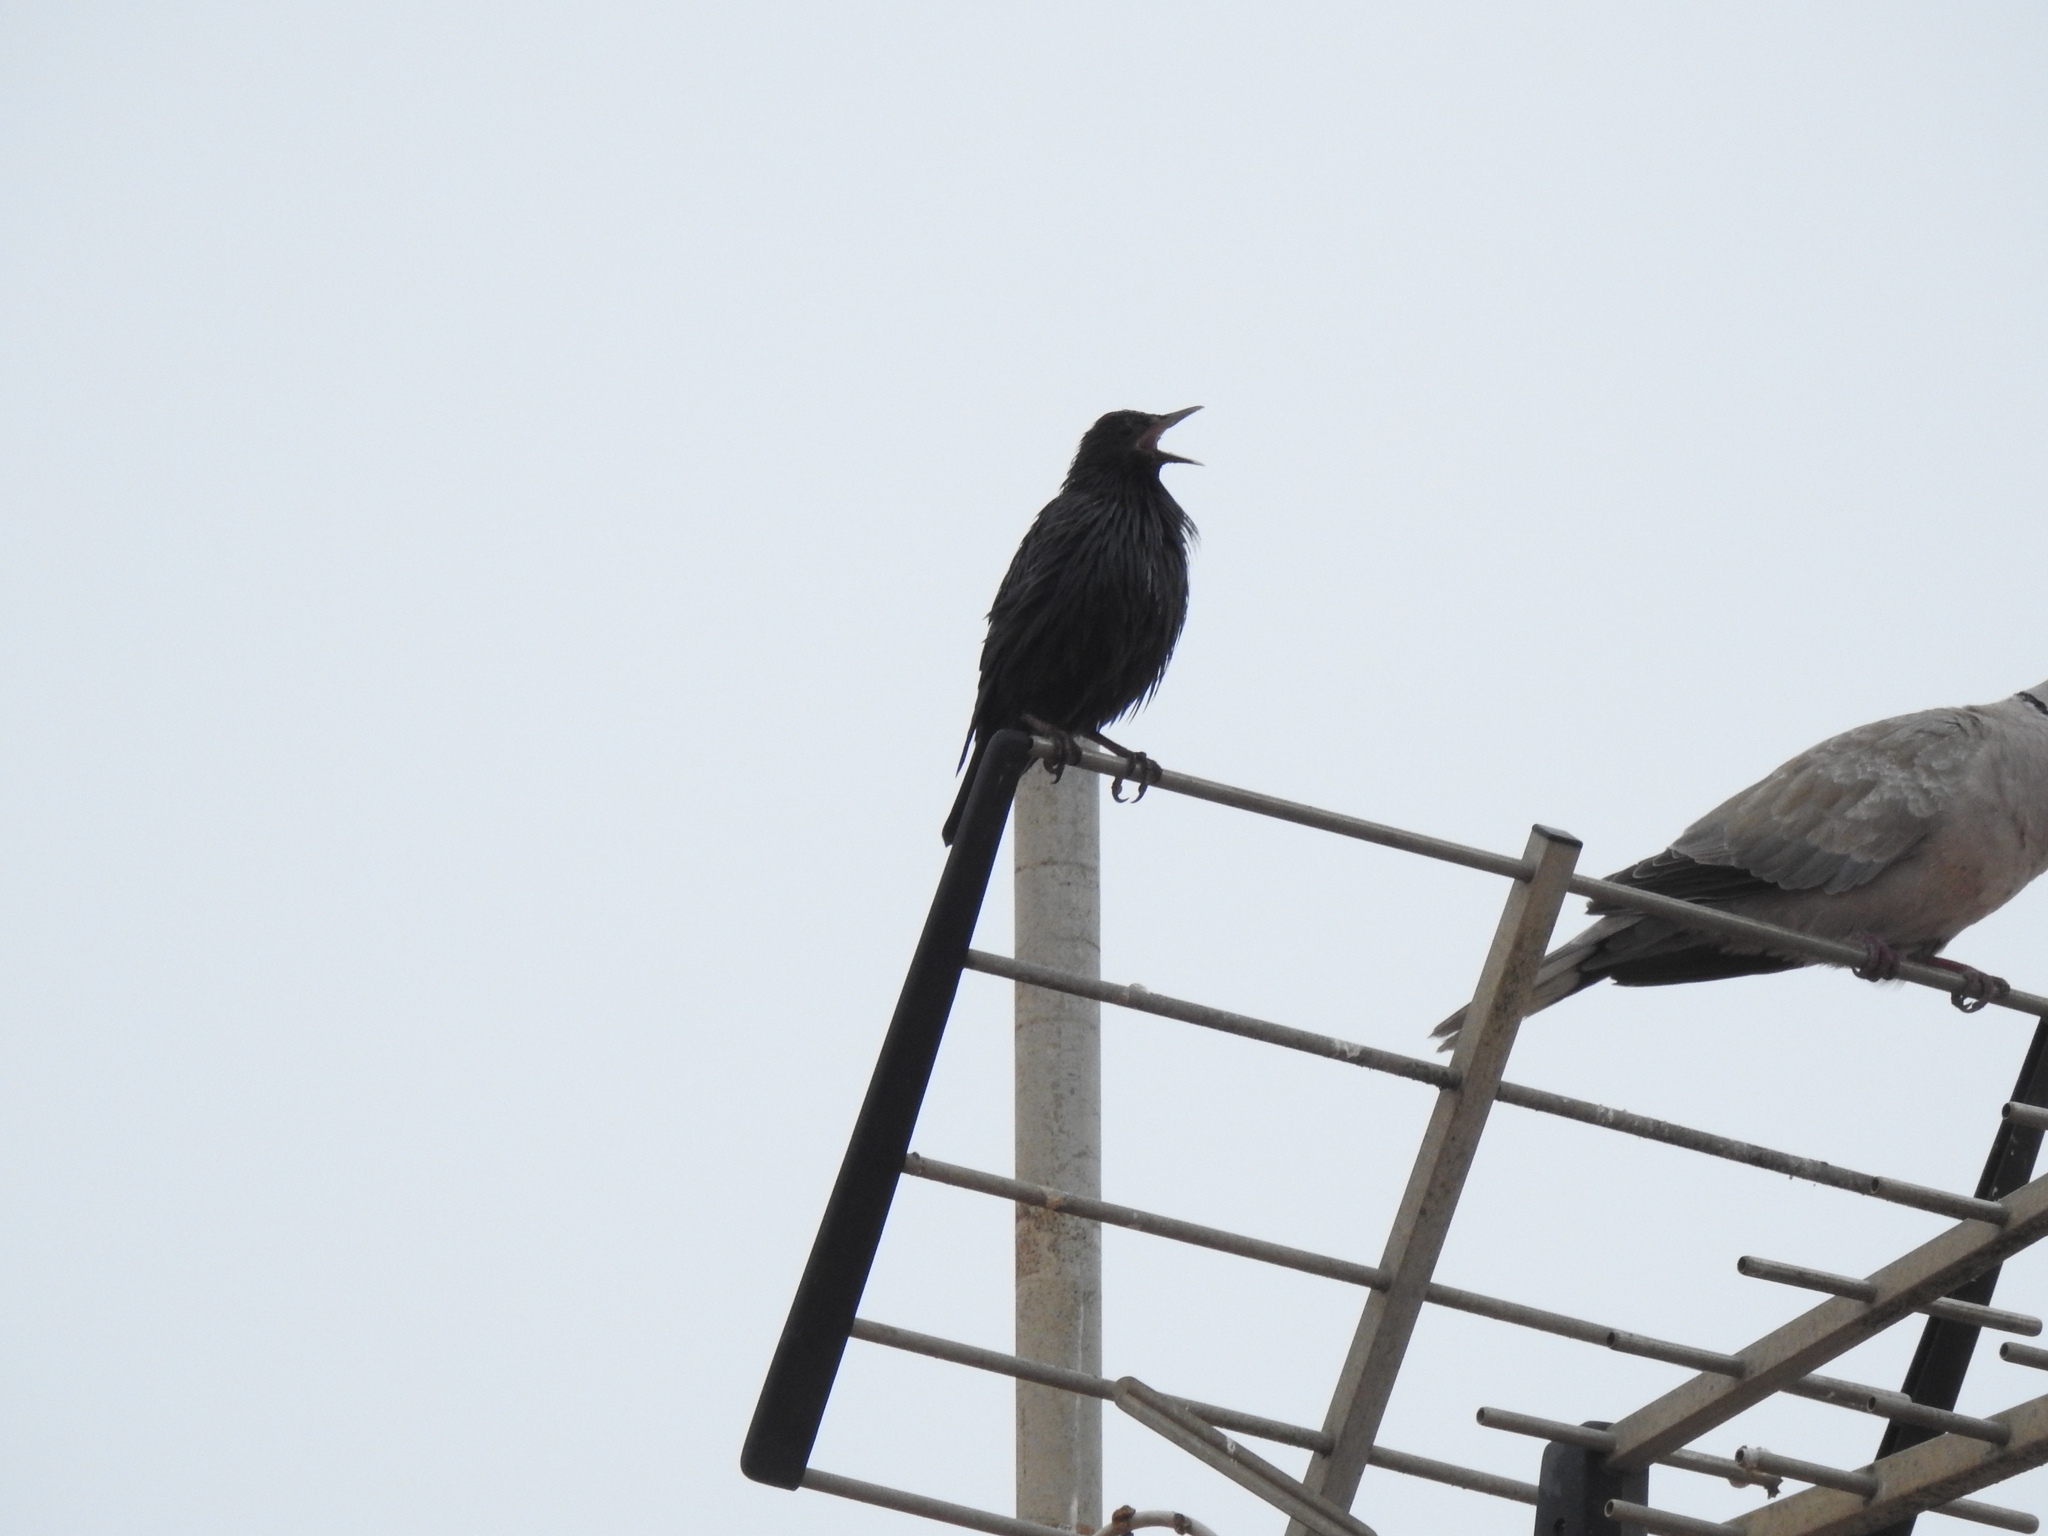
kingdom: Animalia
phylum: Chordata
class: Aves
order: Passeriformes
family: Sturnidae
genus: Sturnus
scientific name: Sturnus unicolor
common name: Spotless starling
